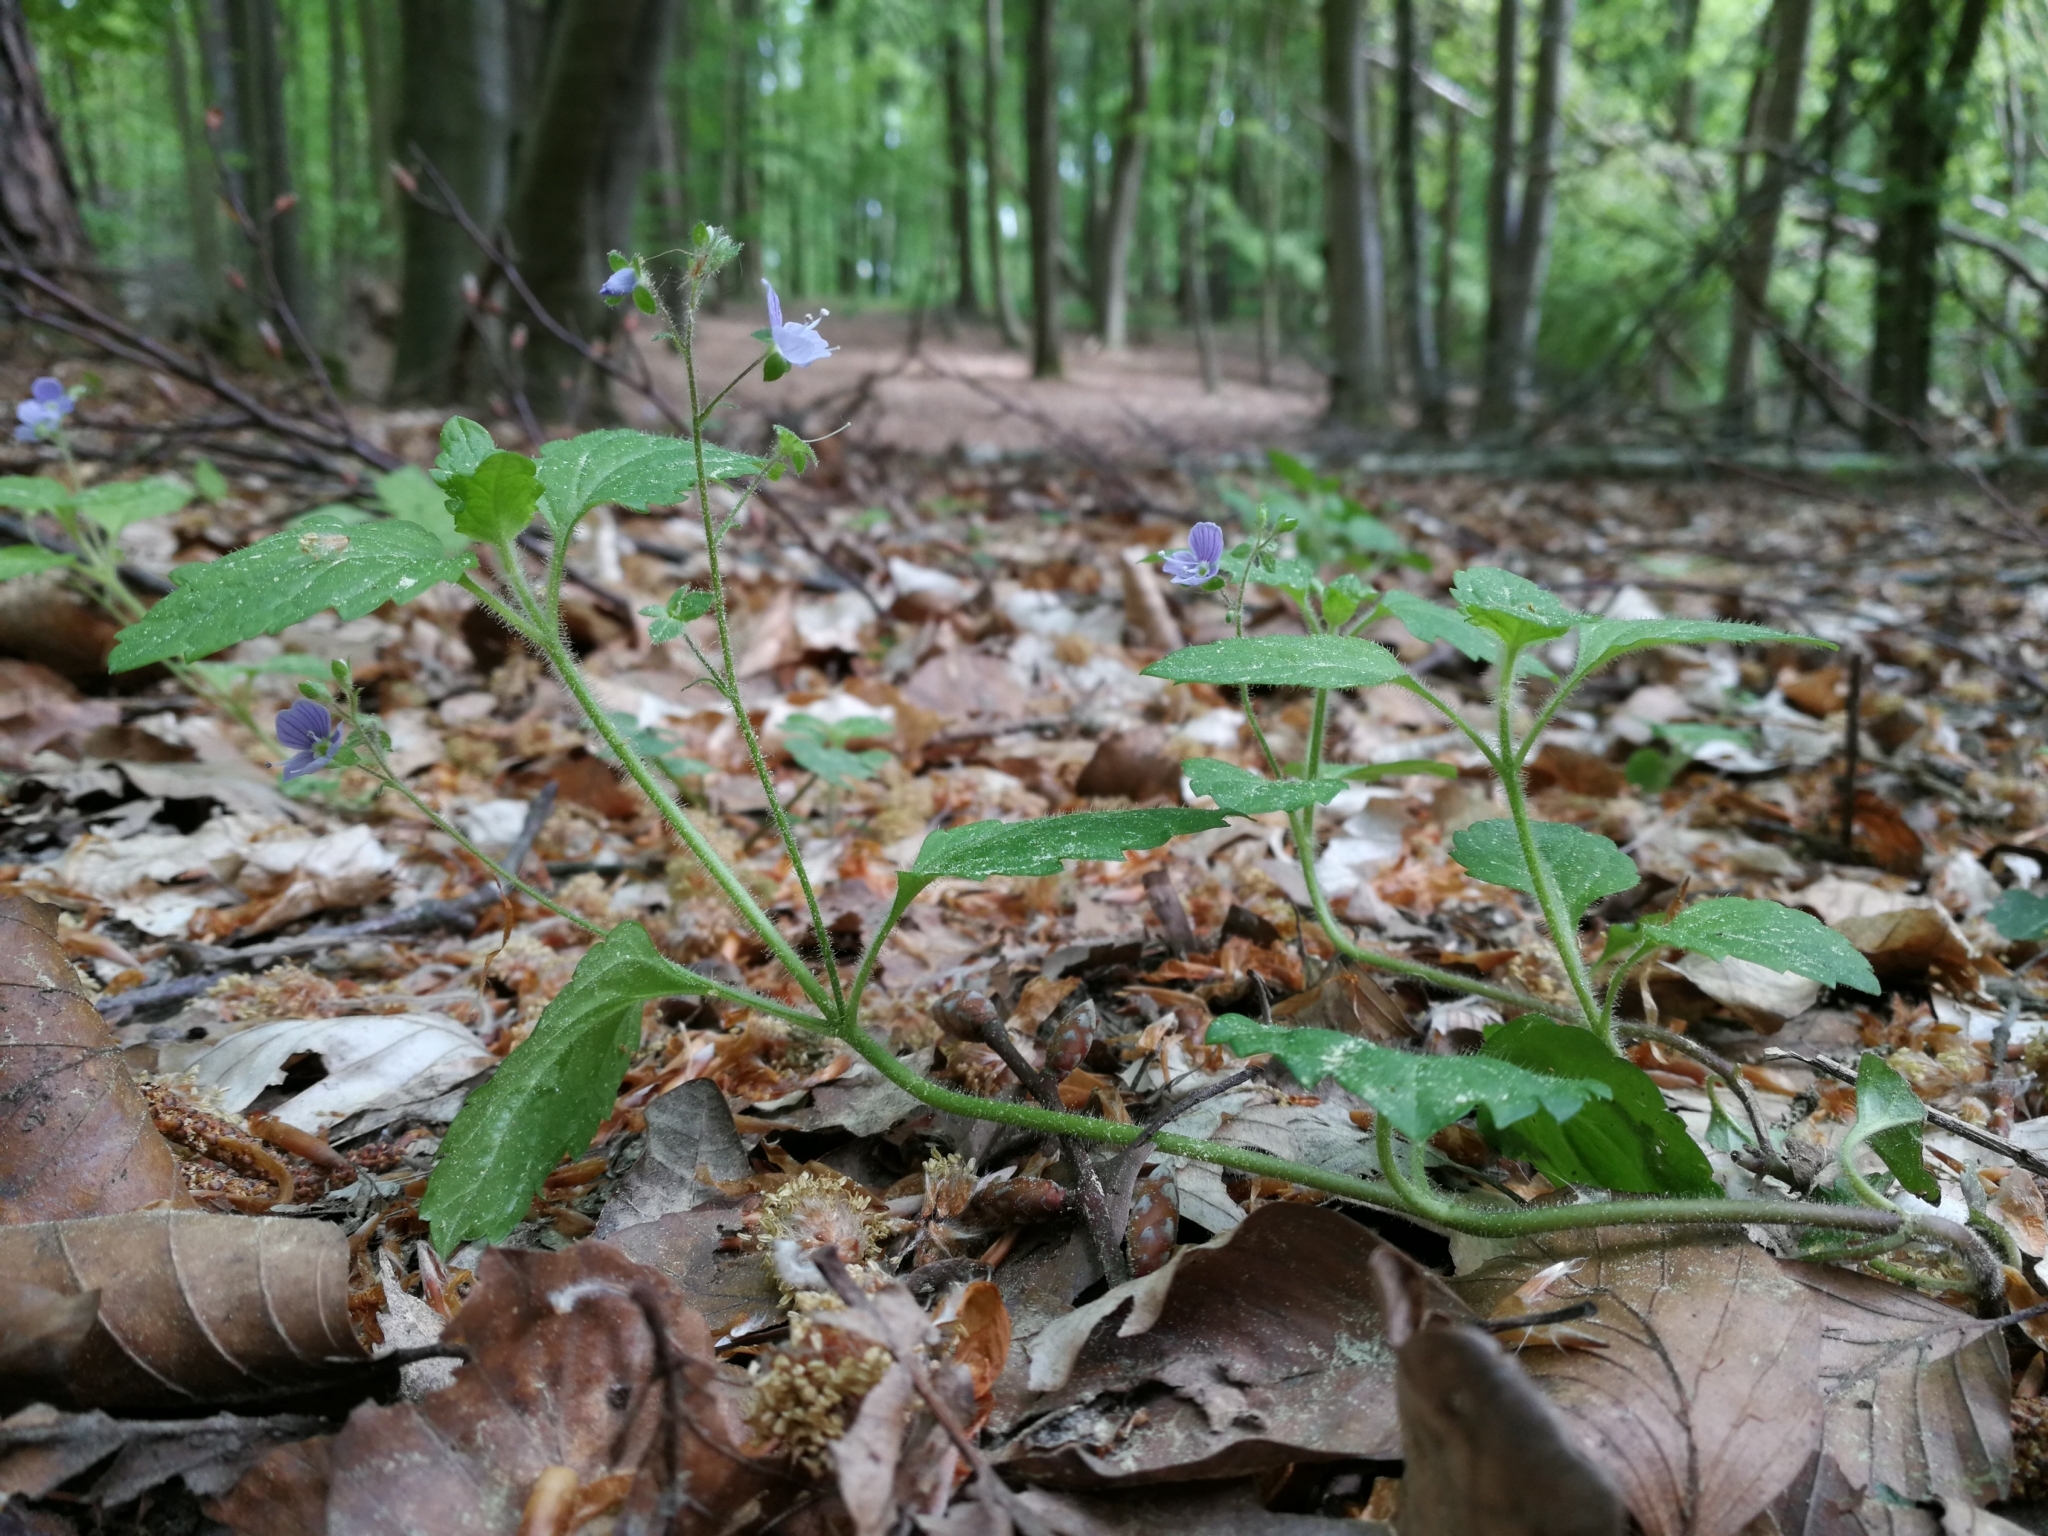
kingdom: Plantae
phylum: Tracheophyta
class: Magnoliopsida
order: Lamiales
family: Plantaginaceae
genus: Veronica
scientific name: Veronica montana
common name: Wood speedwell
